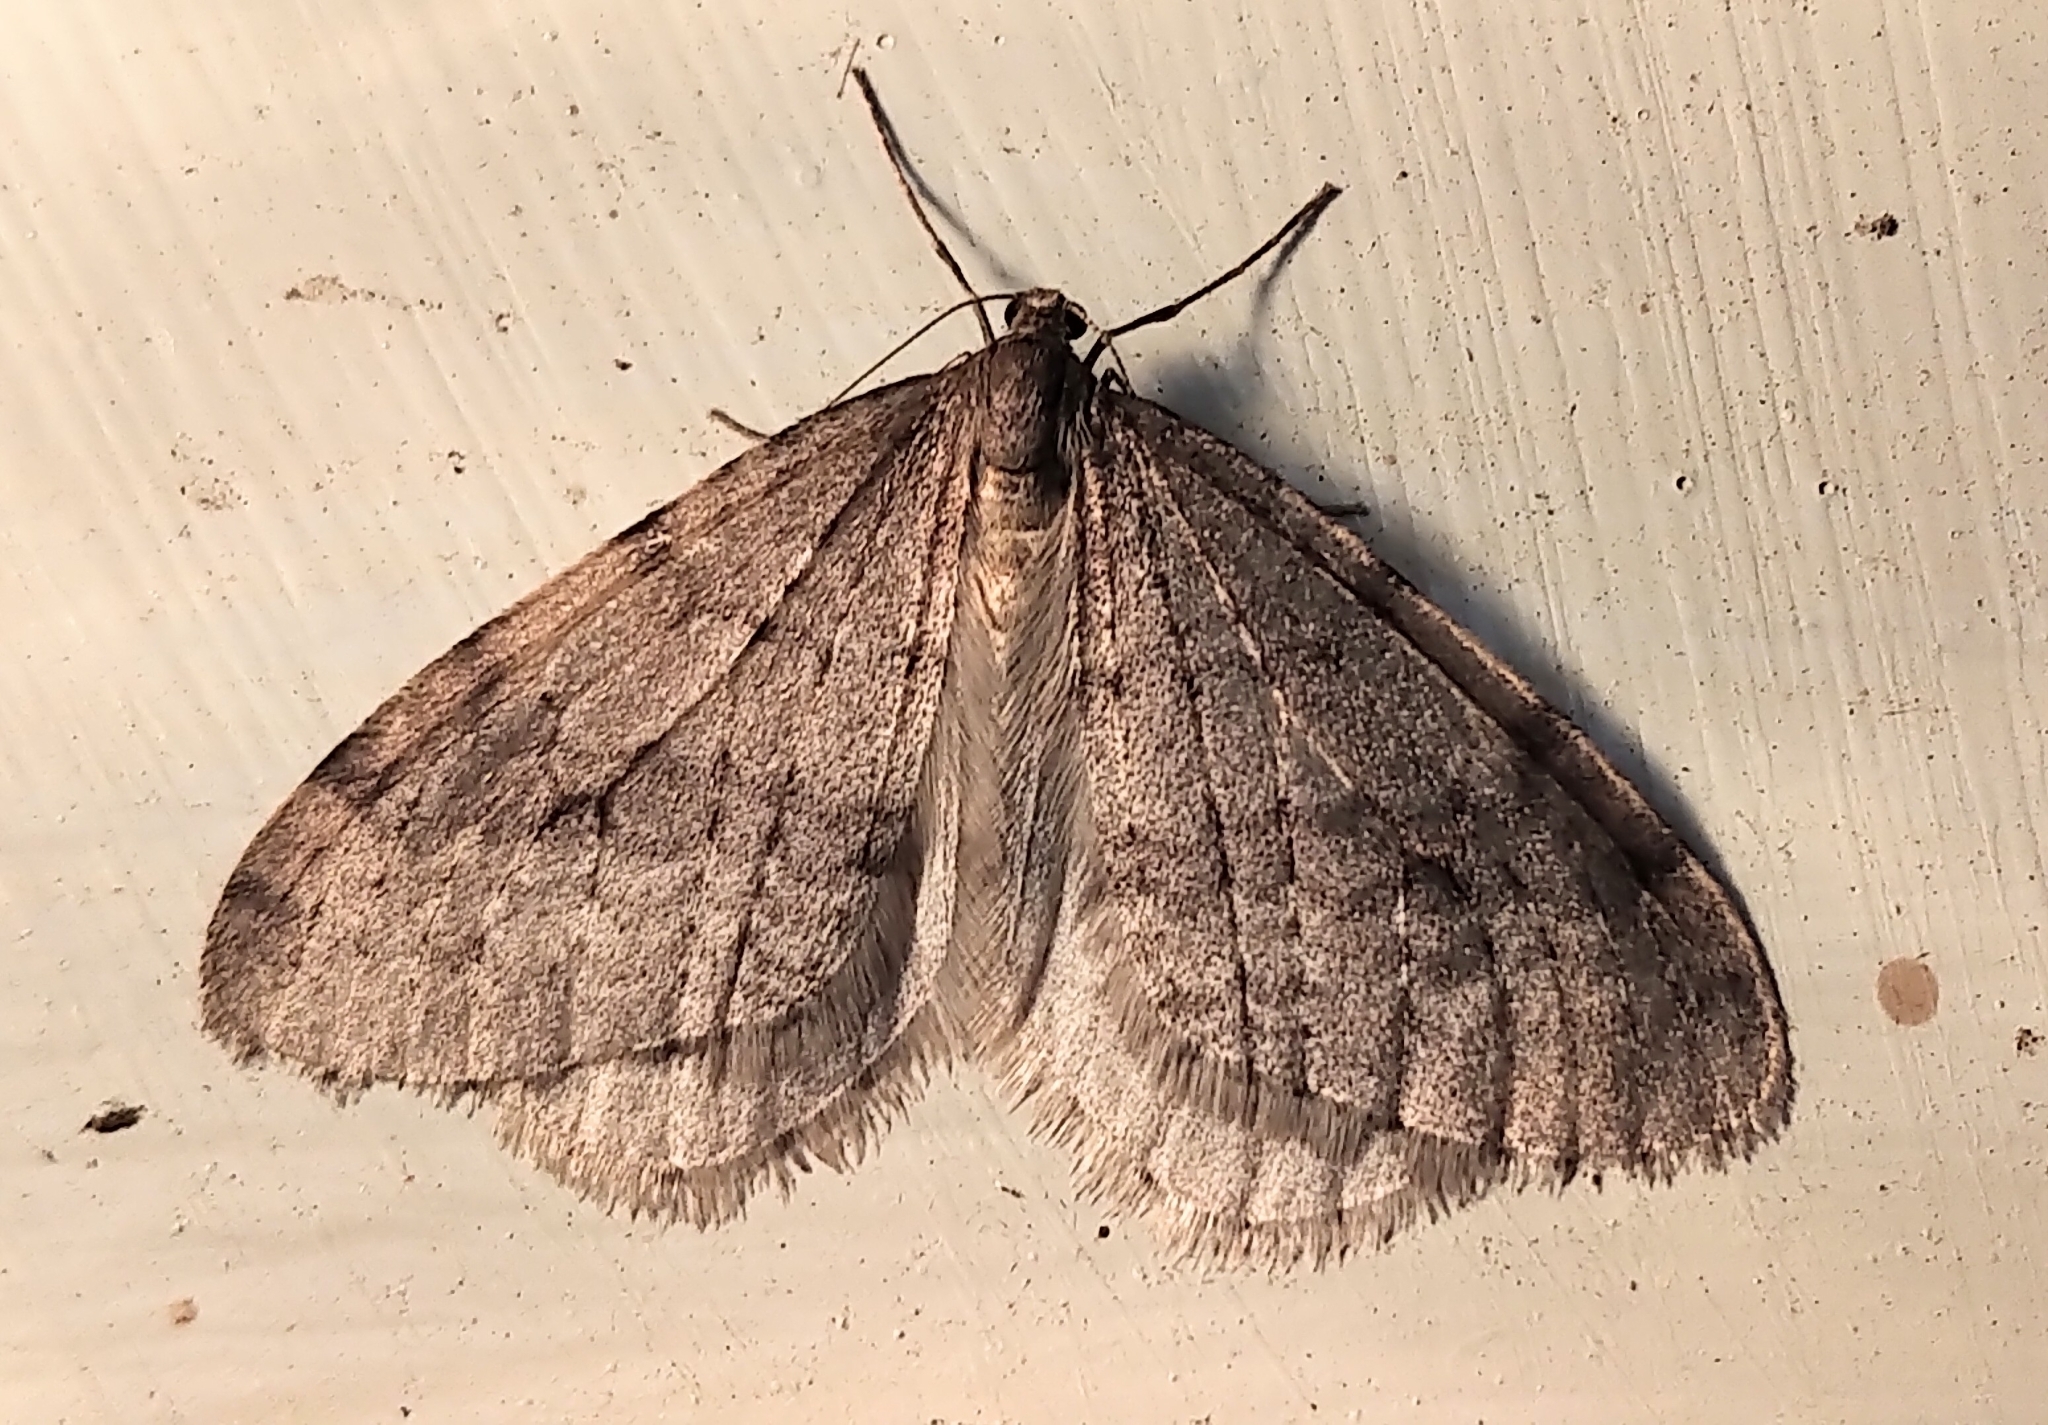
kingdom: Animalia
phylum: Arthropoda
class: Insecta
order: Lepidoptera
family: Geometridae
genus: Operophtera
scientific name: Operophtera bruceata
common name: Bruce spanworm
